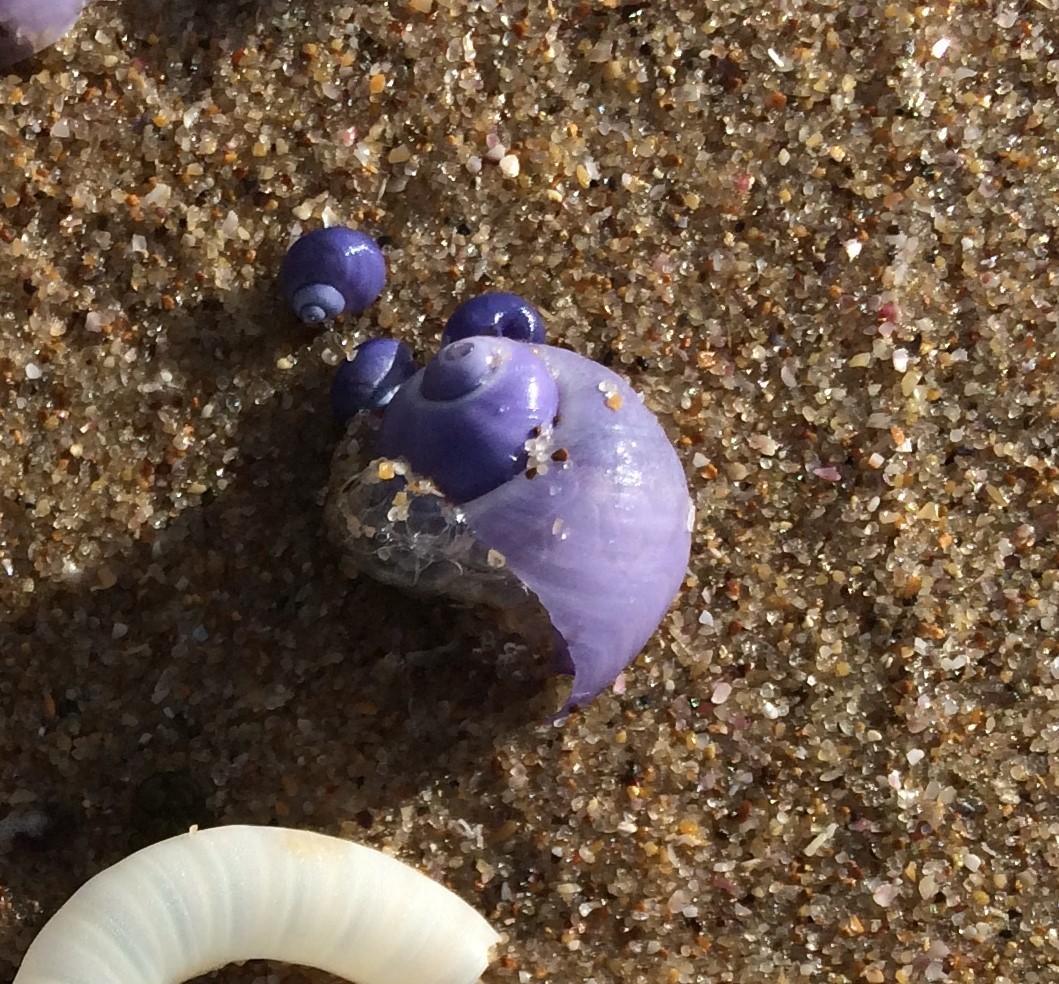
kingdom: Animalia
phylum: Mollusca
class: Gastropoda
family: Epitoniidae
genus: Janthina
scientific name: Janthina umbilicata
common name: Elongate janthina
